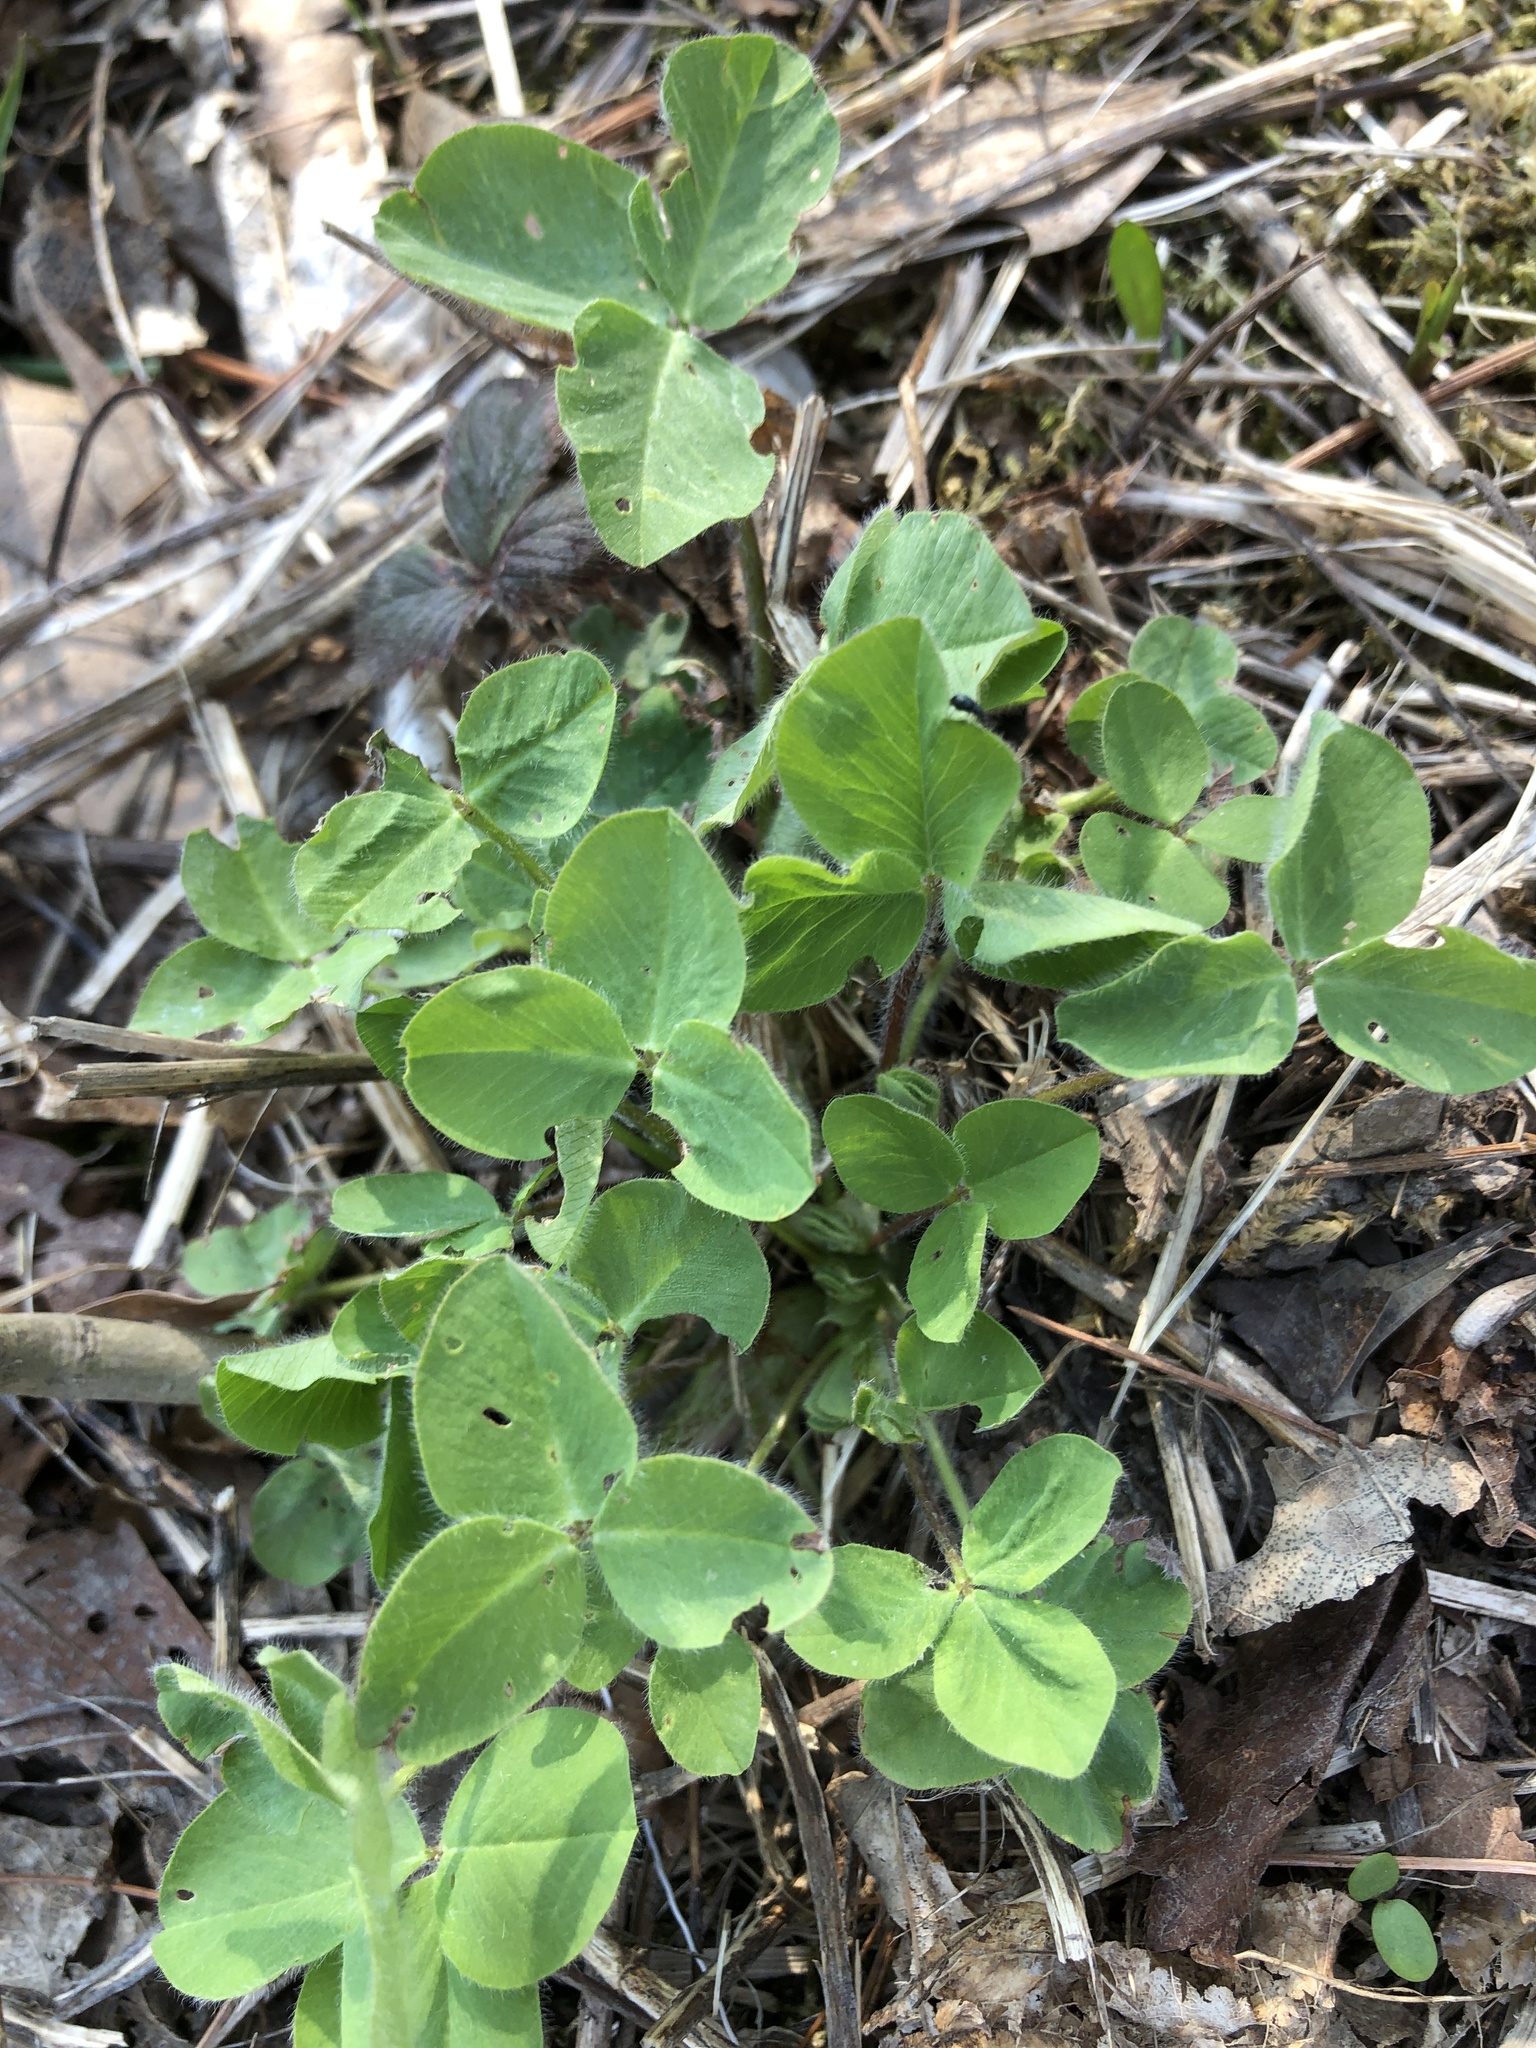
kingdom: Plantae
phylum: Tracheophyta
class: Magnoliopsida
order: Fabales
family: Fabaceae
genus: Trifolium
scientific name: Trifolium pratense
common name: Red clover
